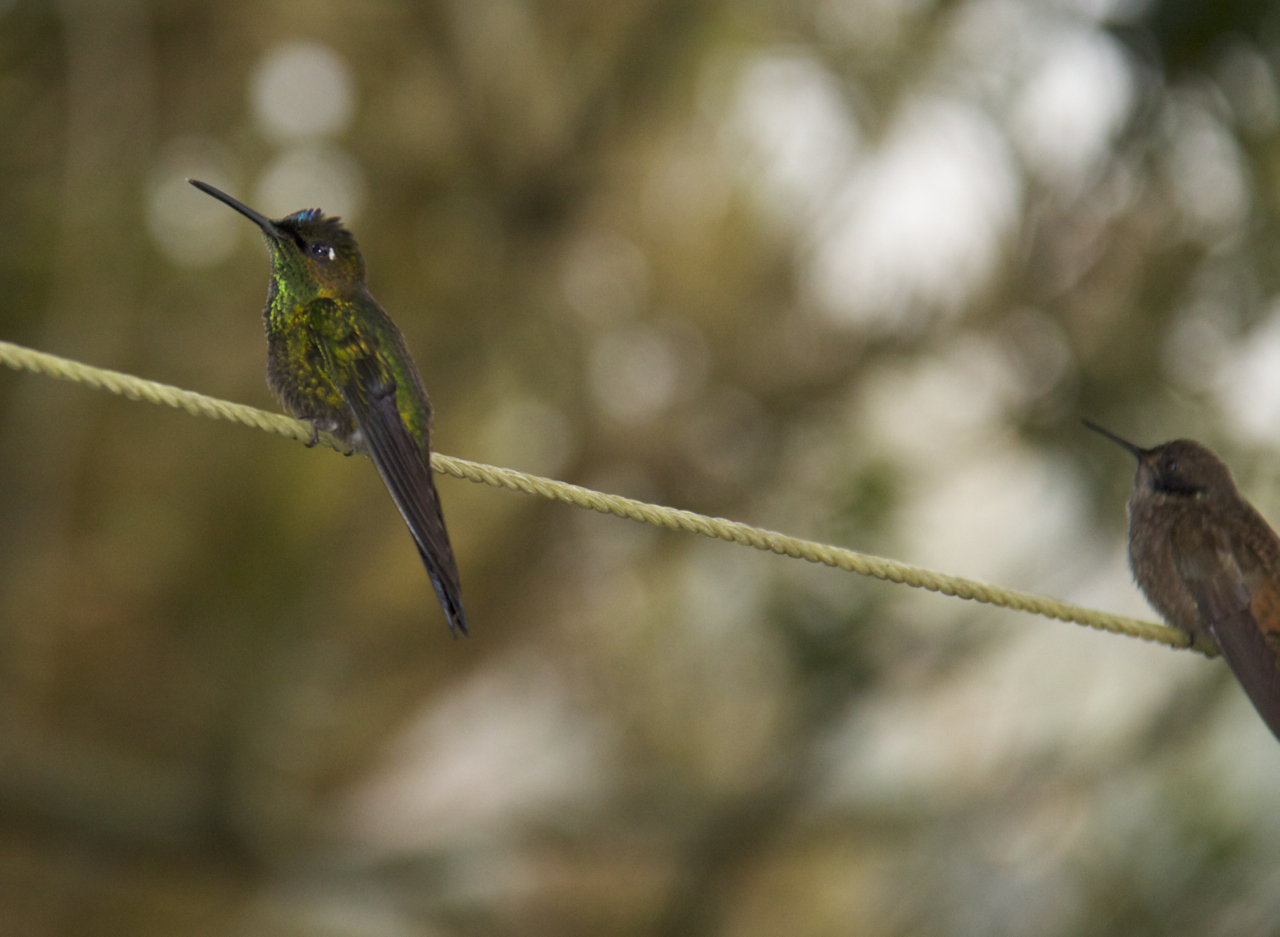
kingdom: Animalia
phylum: Chordata
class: Aves
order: Apodiformes
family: Trochilidae
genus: Heliodoxa
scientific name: Heliodoxa leadbeateri
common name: Violet-fronted brilliant
